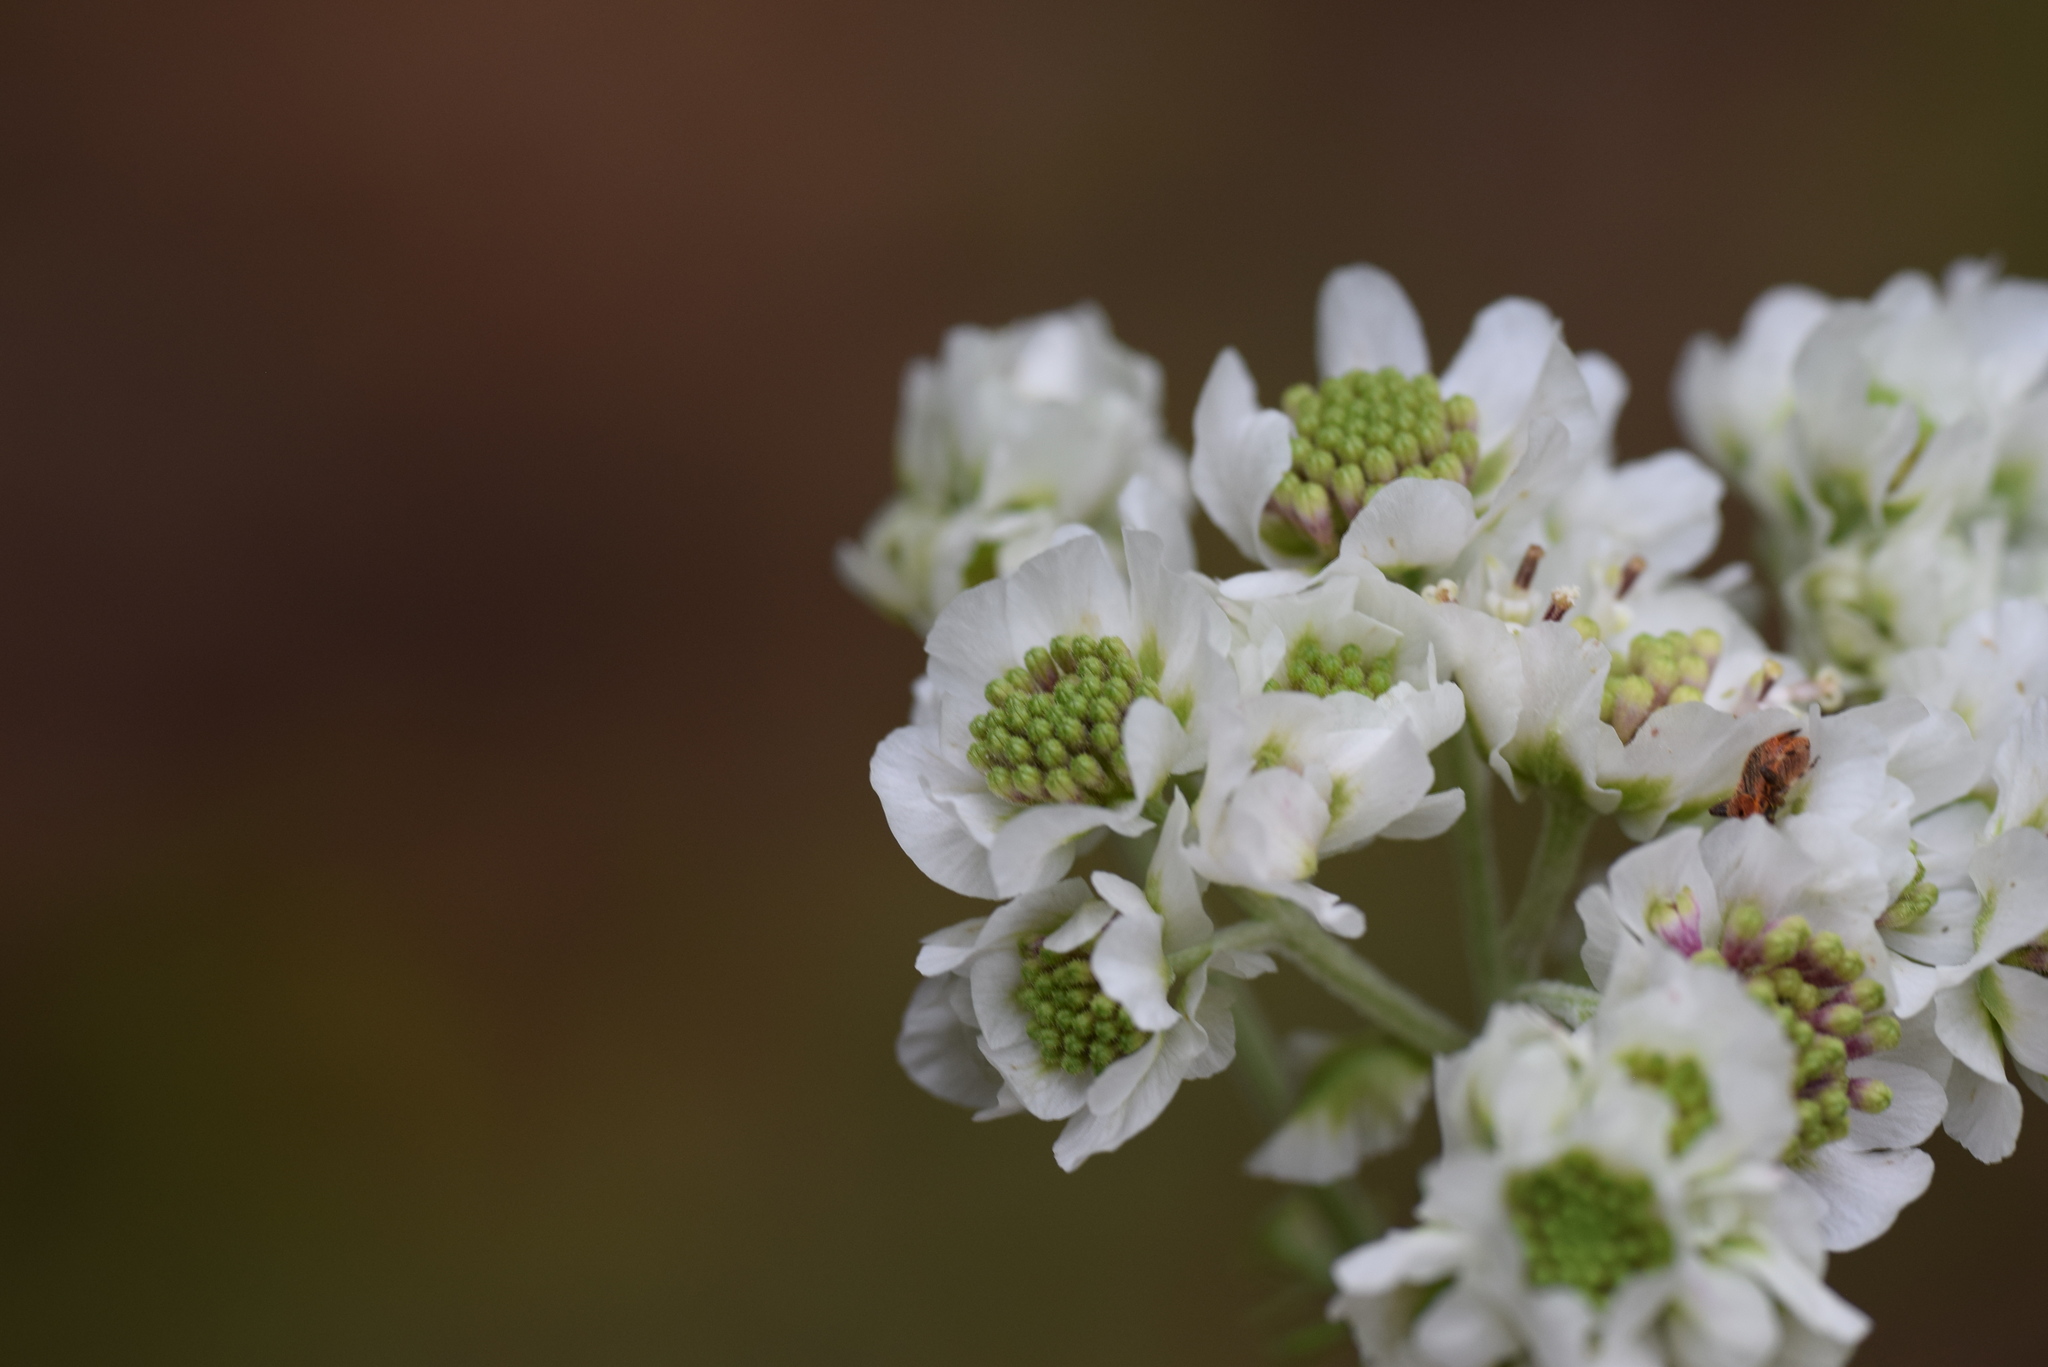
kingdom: Plantae
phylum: Tracheophyta
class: Magnoliopsida
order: Asterales
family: Asteraceae
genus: Hymenopappus
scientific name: Hymenopappus artemisiifolius
